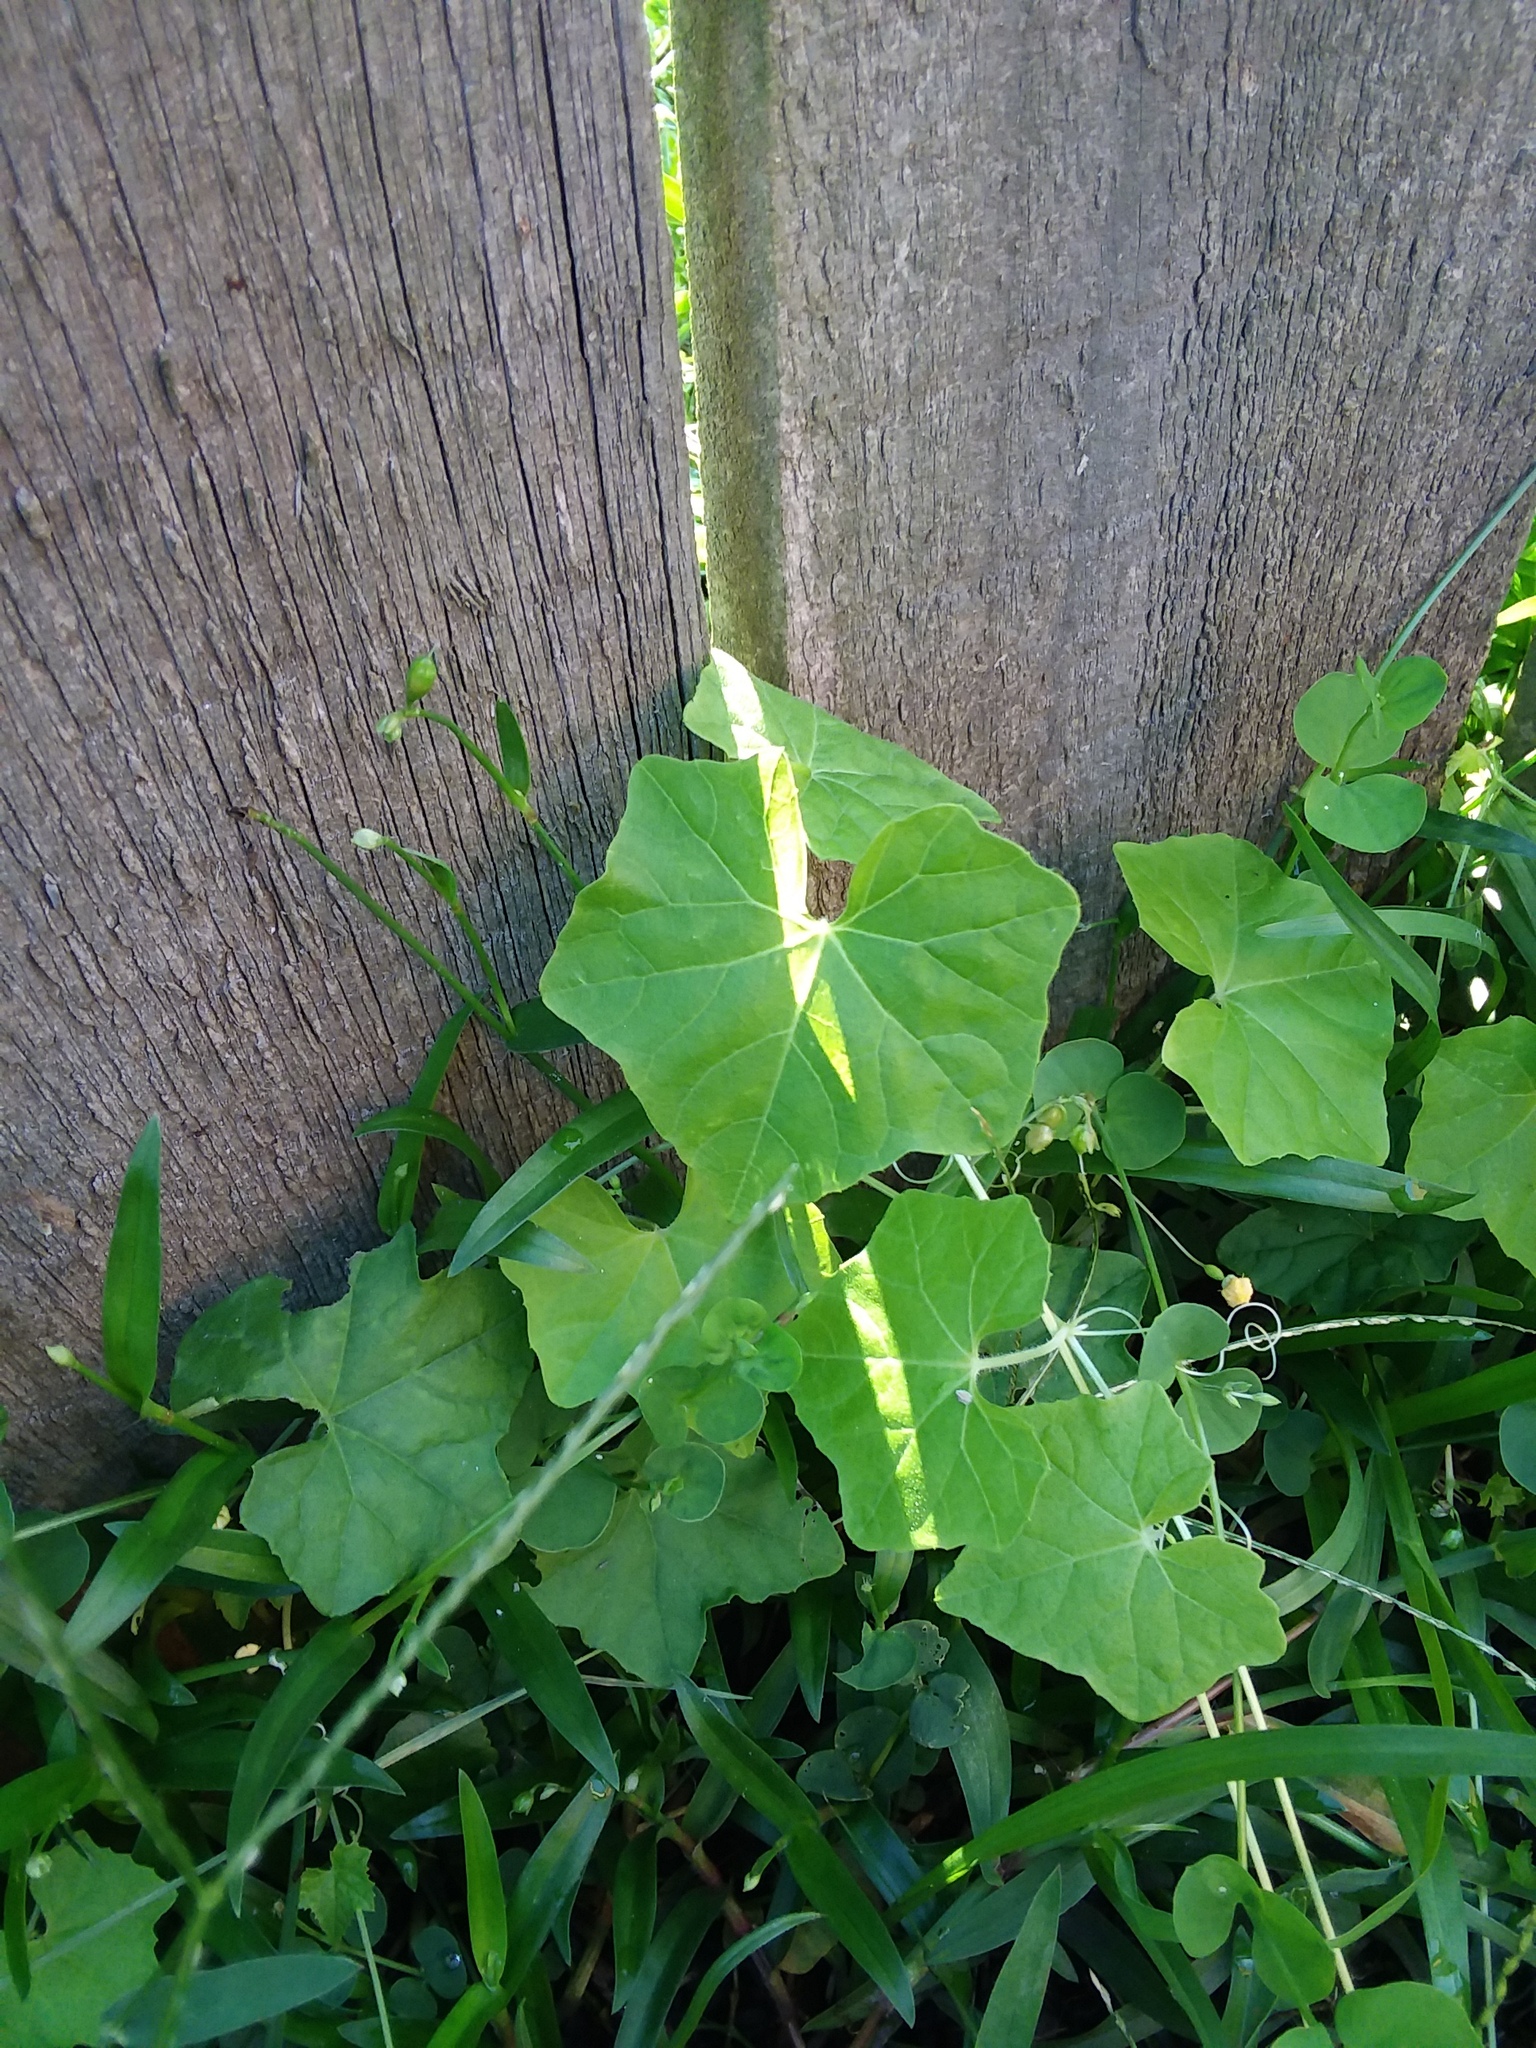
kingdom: Plantae
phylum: Tracheophyta
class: Magnoliopsida
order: Cucurbitales
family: Cucurbitaceae
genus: Melothria
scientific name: Melothria pendula
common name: Creeping-cucumber
